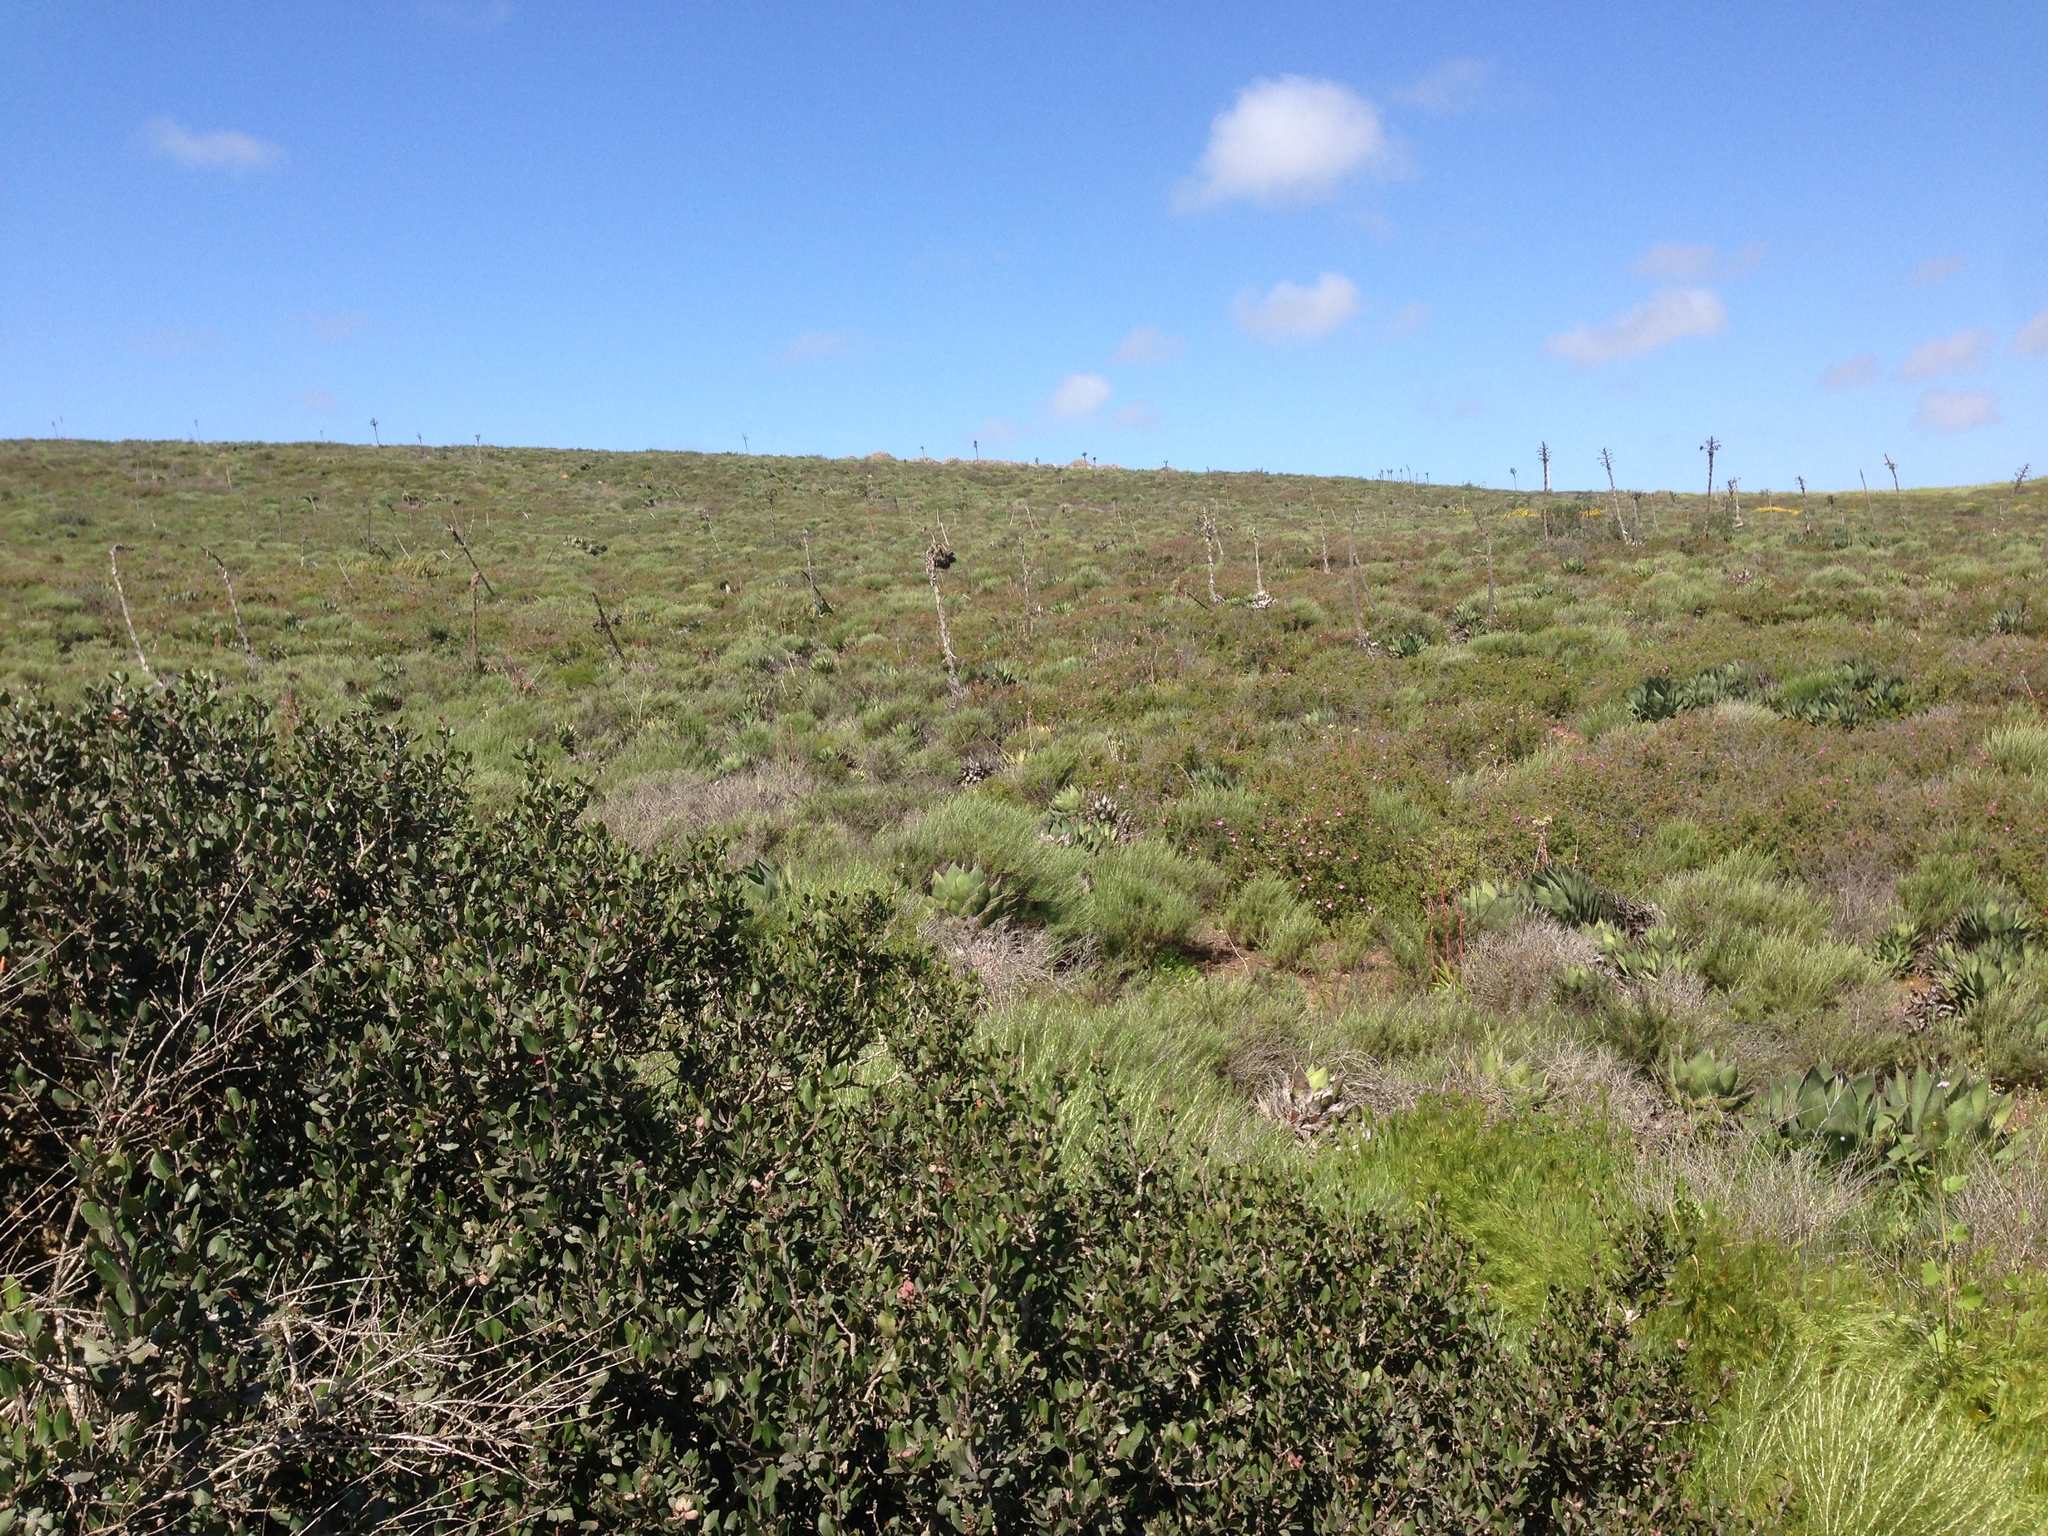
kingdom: Plantae
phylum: Tracheophyta
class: Magnoliopsida
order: Sapindales
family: Anacardiaceae
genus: Rhus
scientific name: Rhus integrifolia
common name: Lemonade sumac
